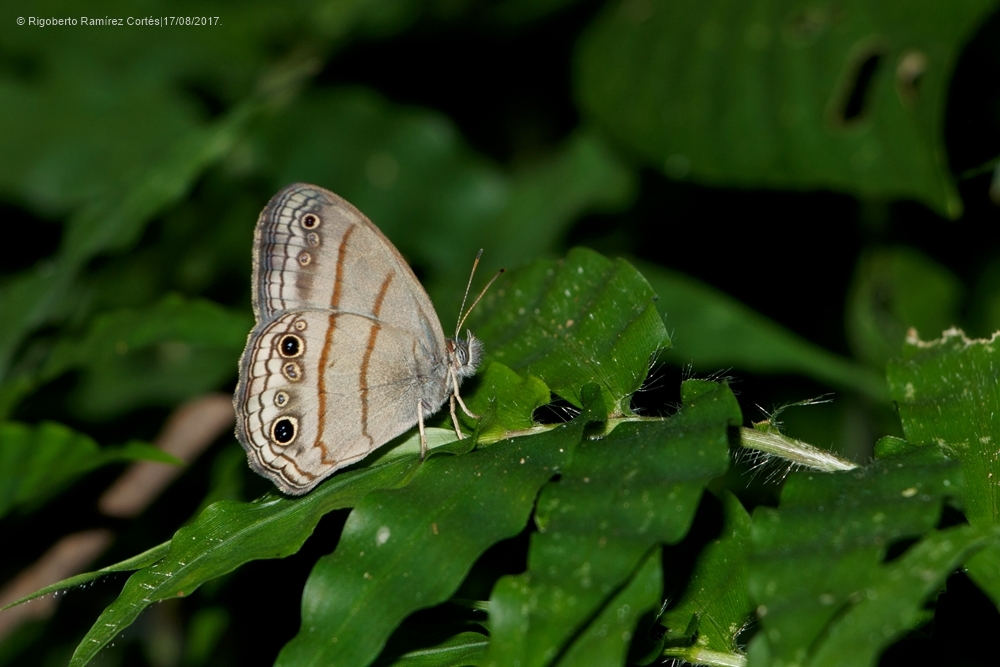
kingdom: Animalia
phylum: Arthropoda
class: Insecta
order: Lepidoptera
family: Nymphalidae
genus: Vareuptychia
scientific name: Vareuptychia similis
